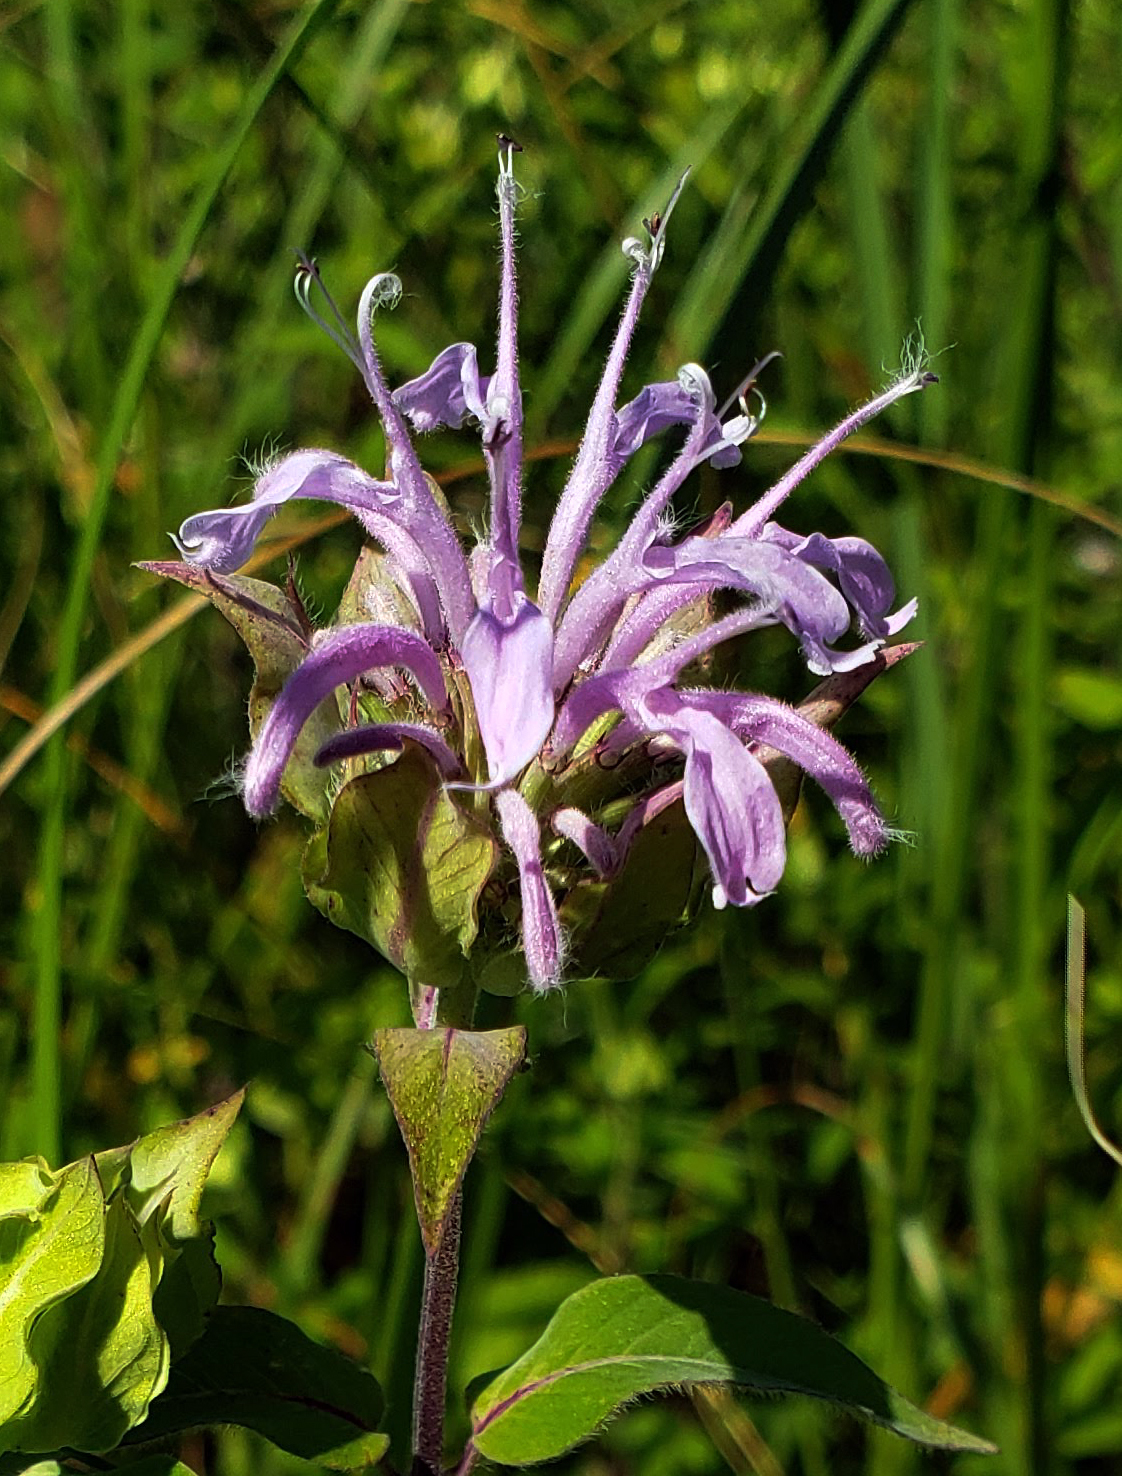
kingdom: Plantae
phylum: Tracheophyta
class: Magnoliopsida
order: Lamiales
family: Lamiaceae
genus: Monarda
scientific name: Monarda fistulosa
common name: Purple beebalm
